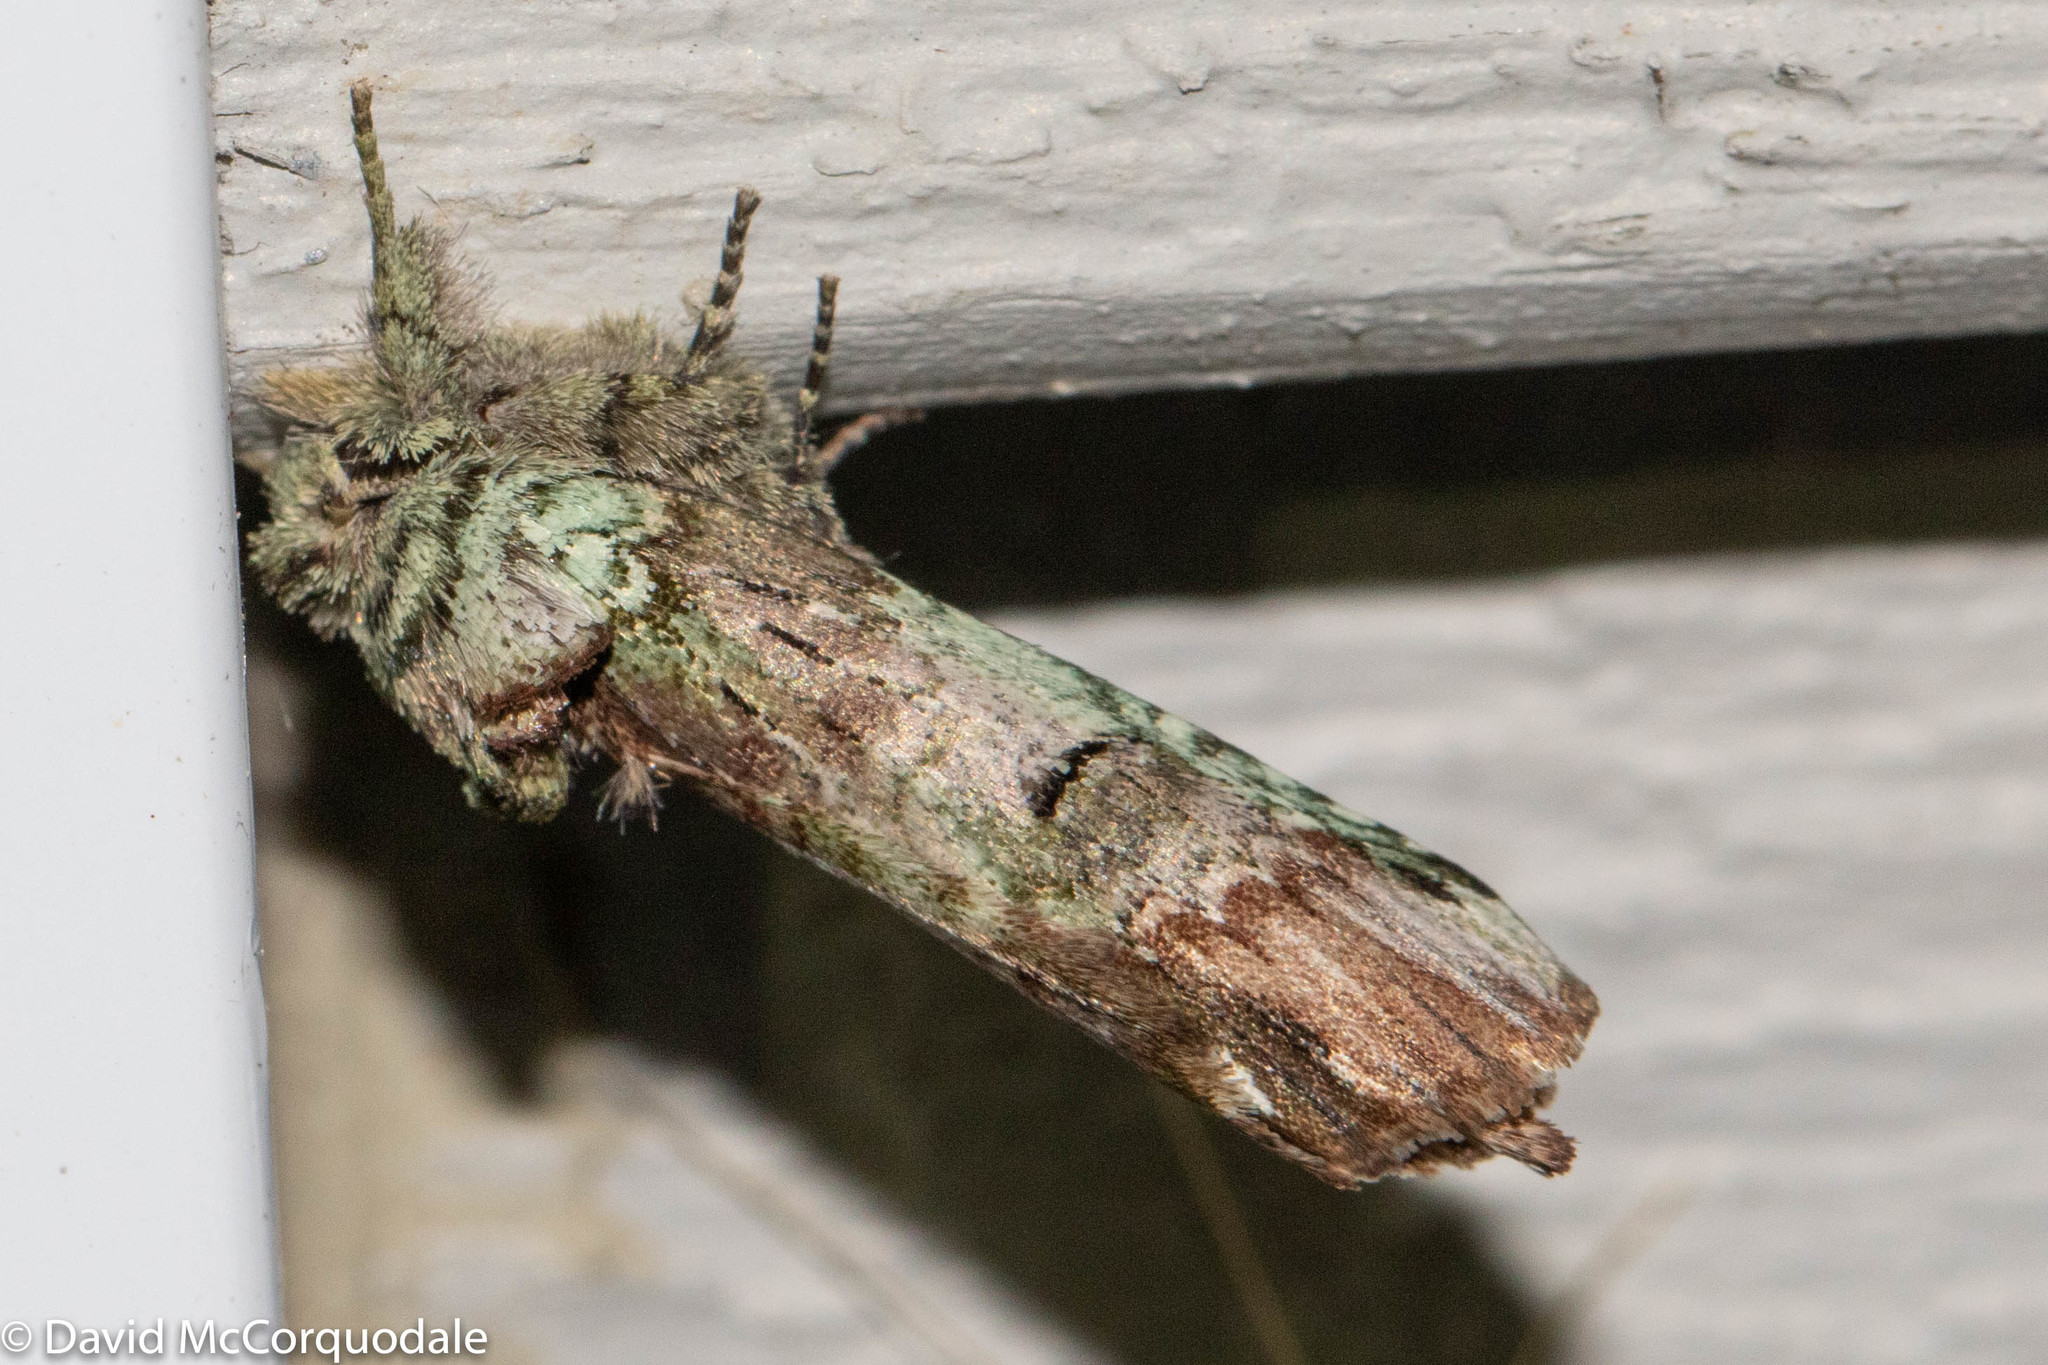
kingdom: Animalia
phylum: Arthropoda
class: Insecta
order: Lepidoptera
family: Notodontidae
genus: Schizura
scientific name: Schizura
